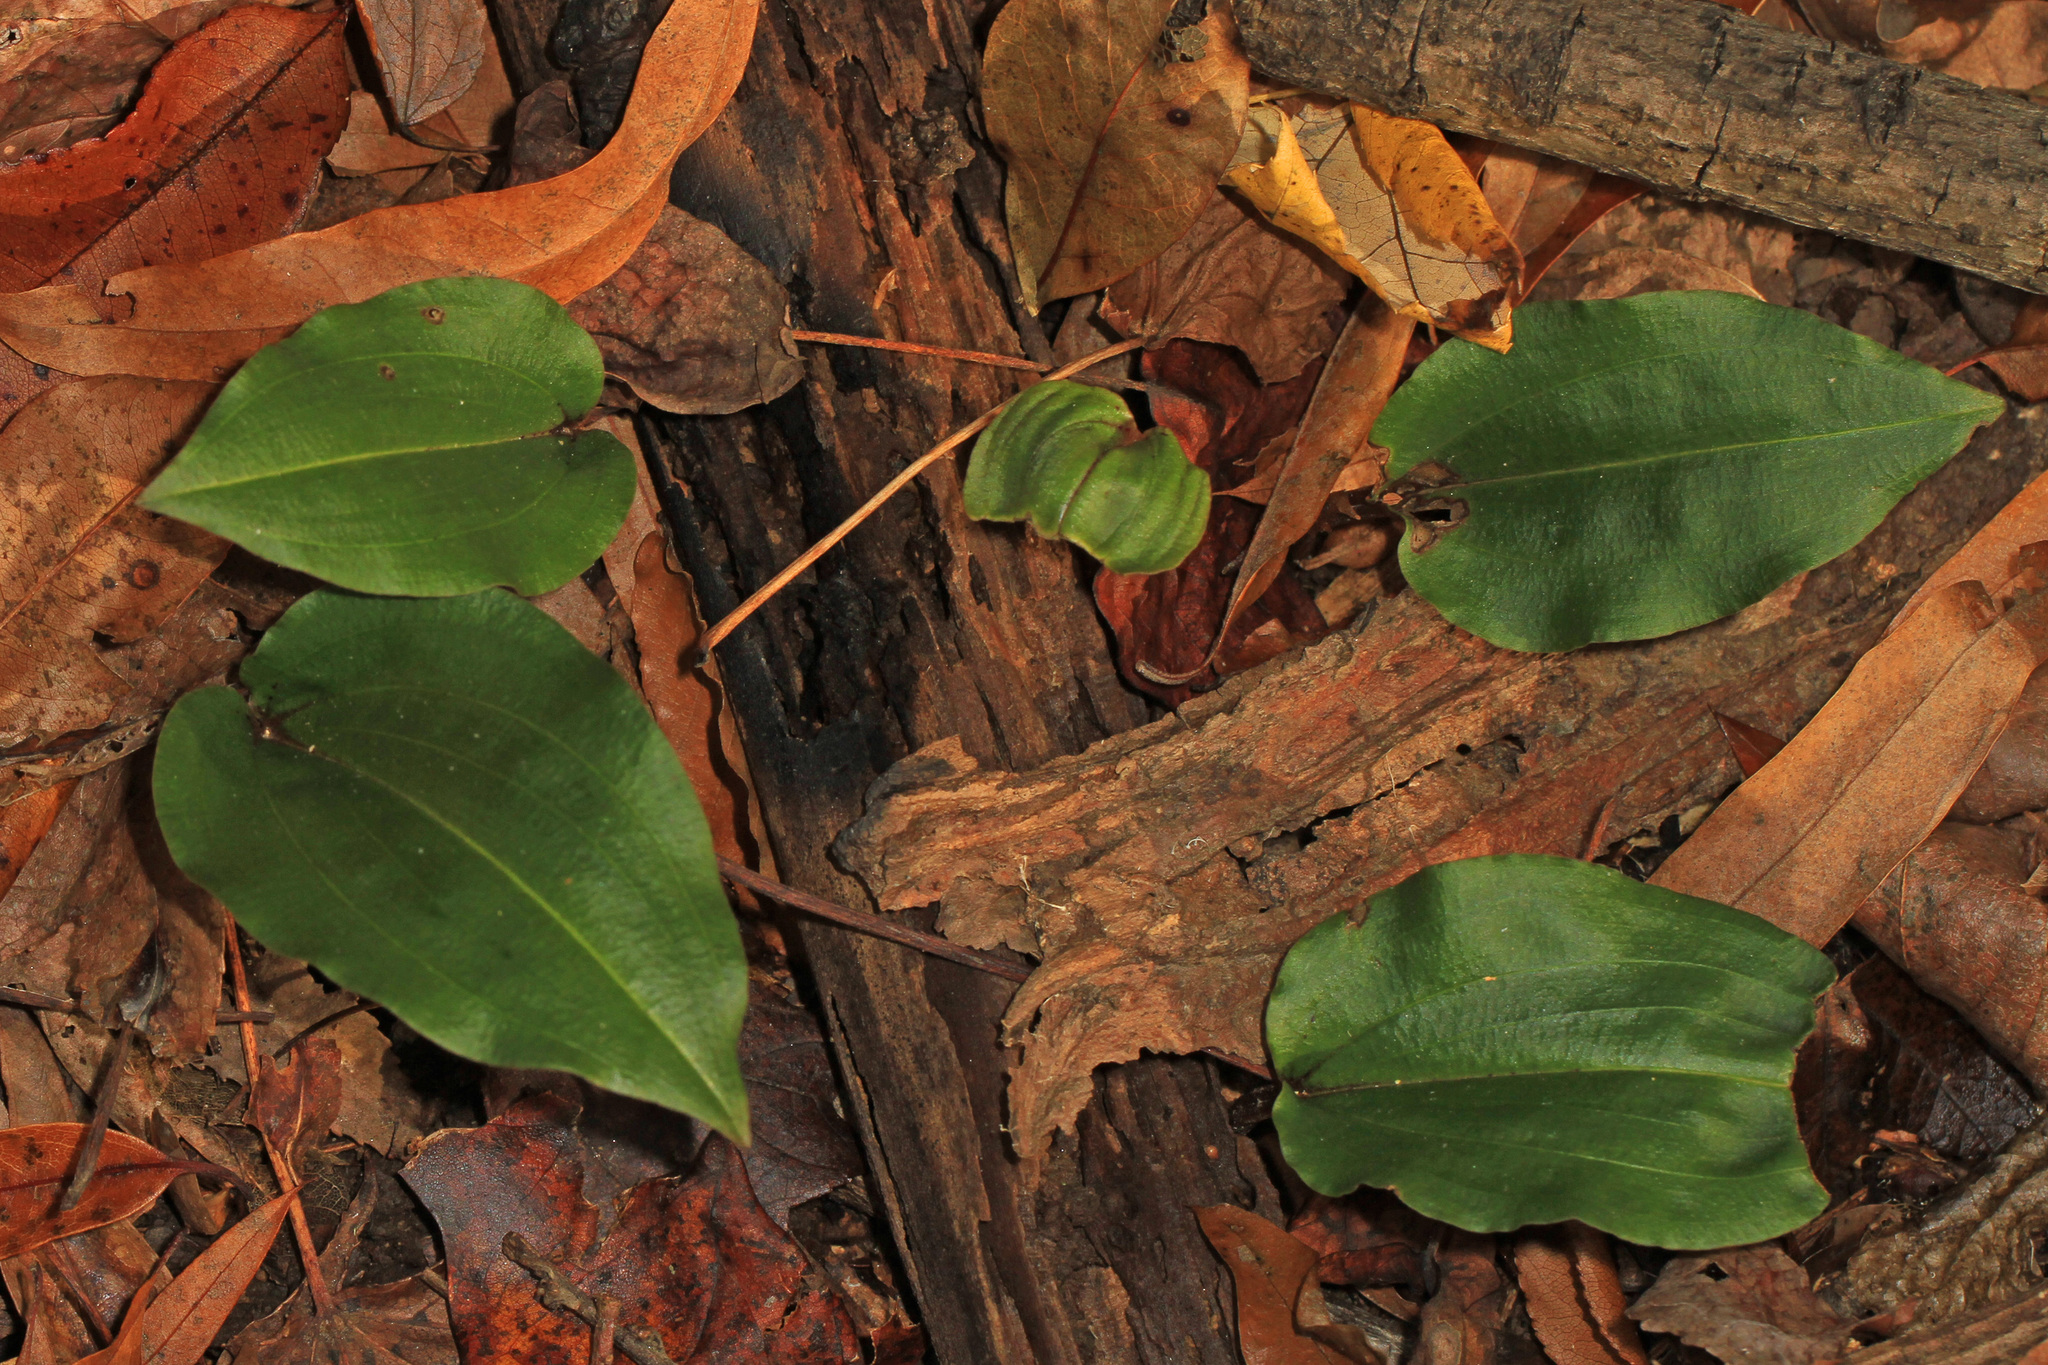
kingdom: Plantae
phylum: Tracheophyta
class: Liliopsida
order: Asparagales
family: Orchidaceae
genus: Tipularia
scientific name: Tipularia discolor
